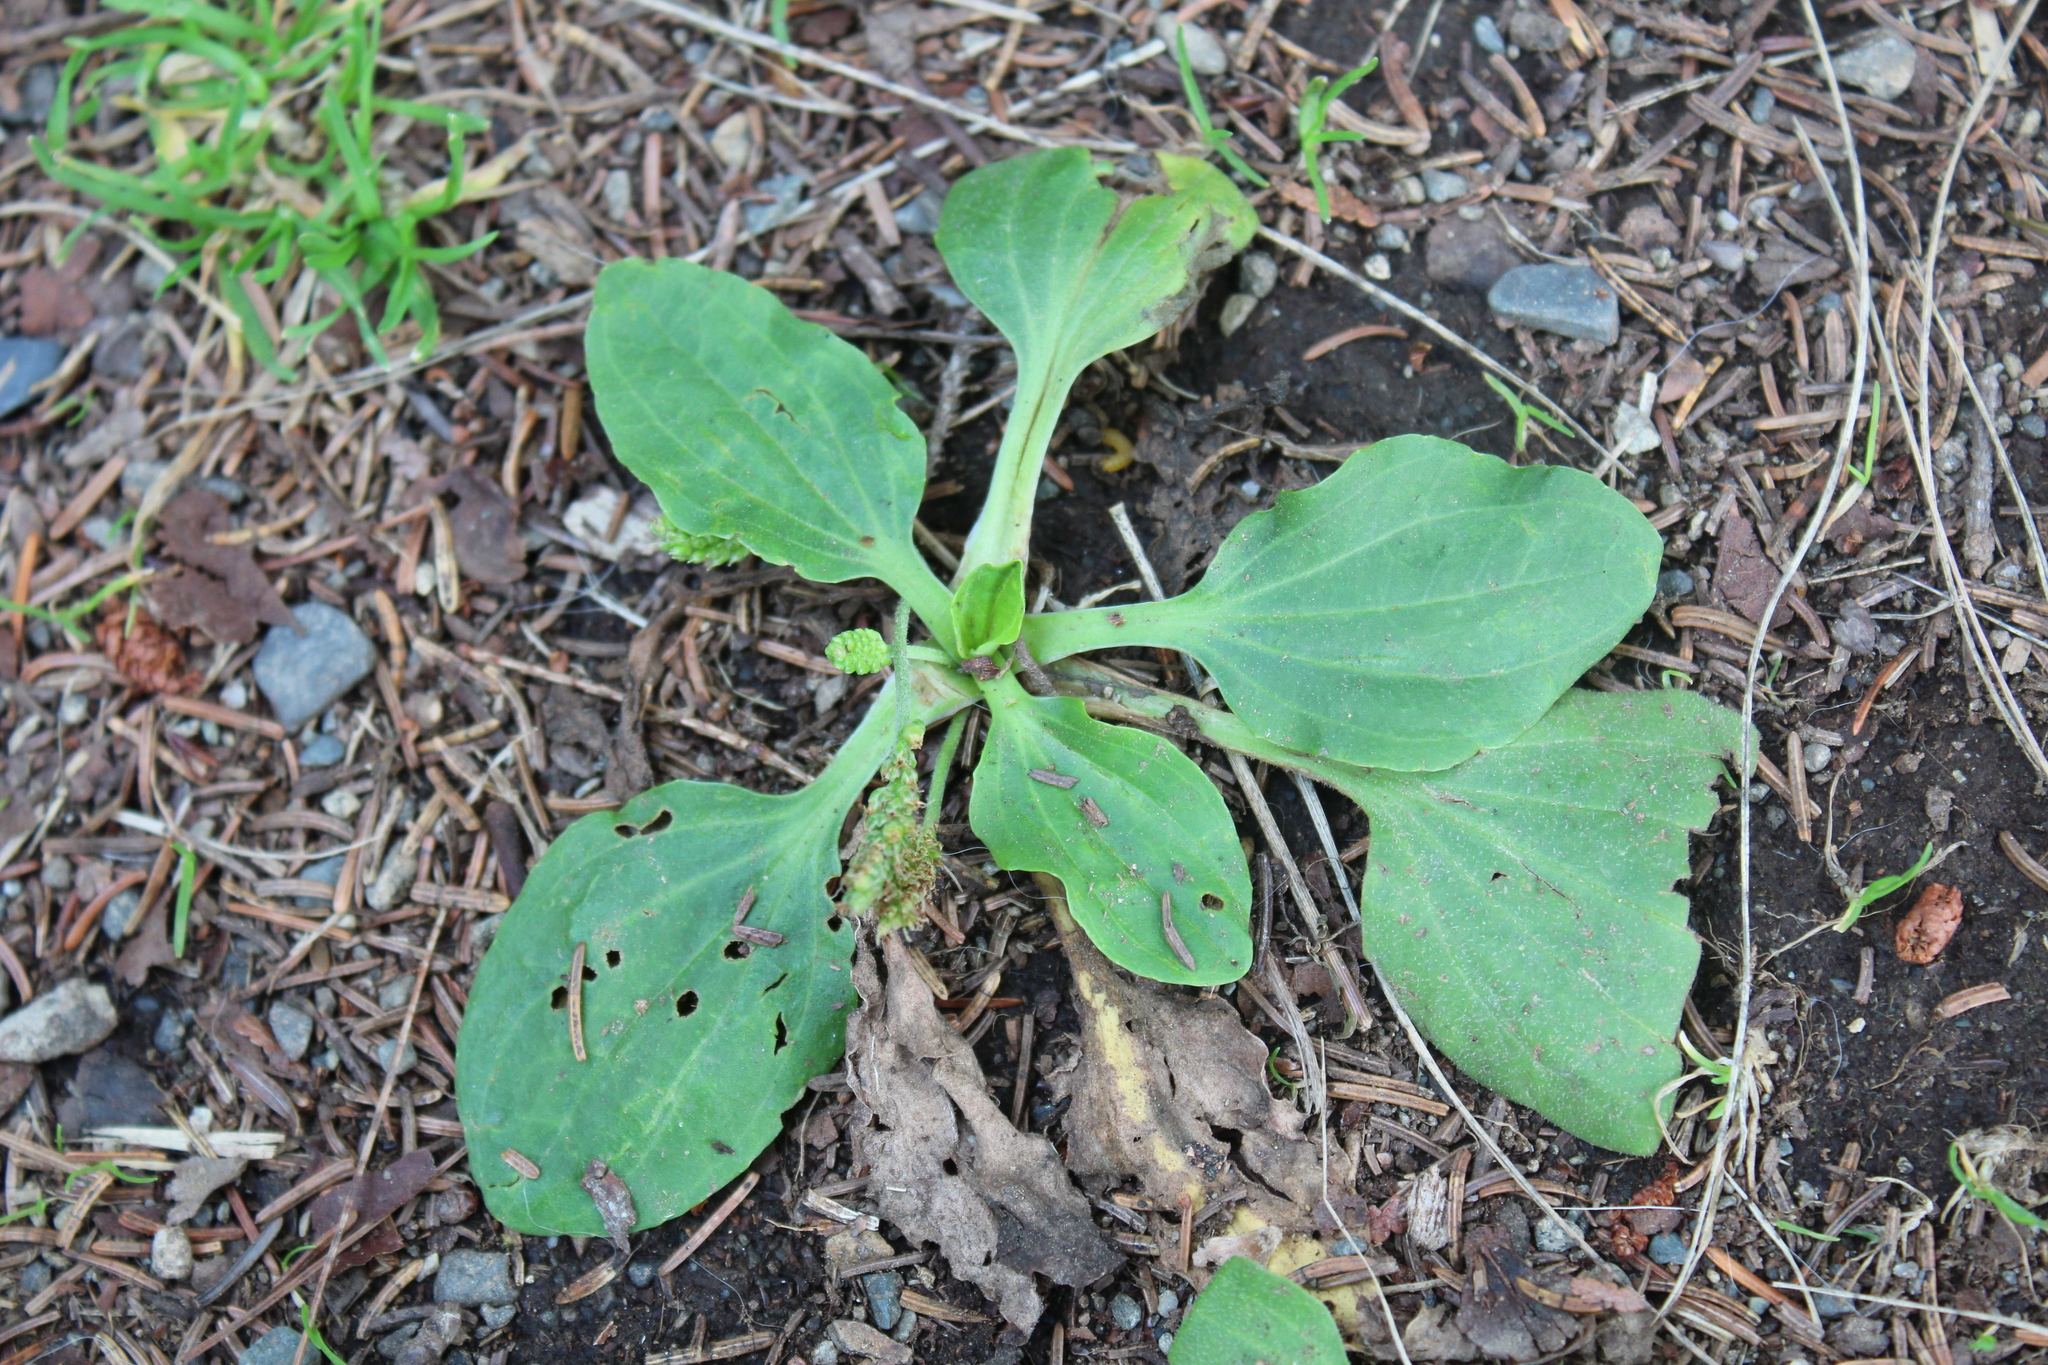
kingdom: Plantae
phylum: Tracheophyta
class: Magnoliopsida
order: Lamiales
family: Plantaginaceae
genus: Plantago
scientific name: Plantago major
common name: Common plantain
